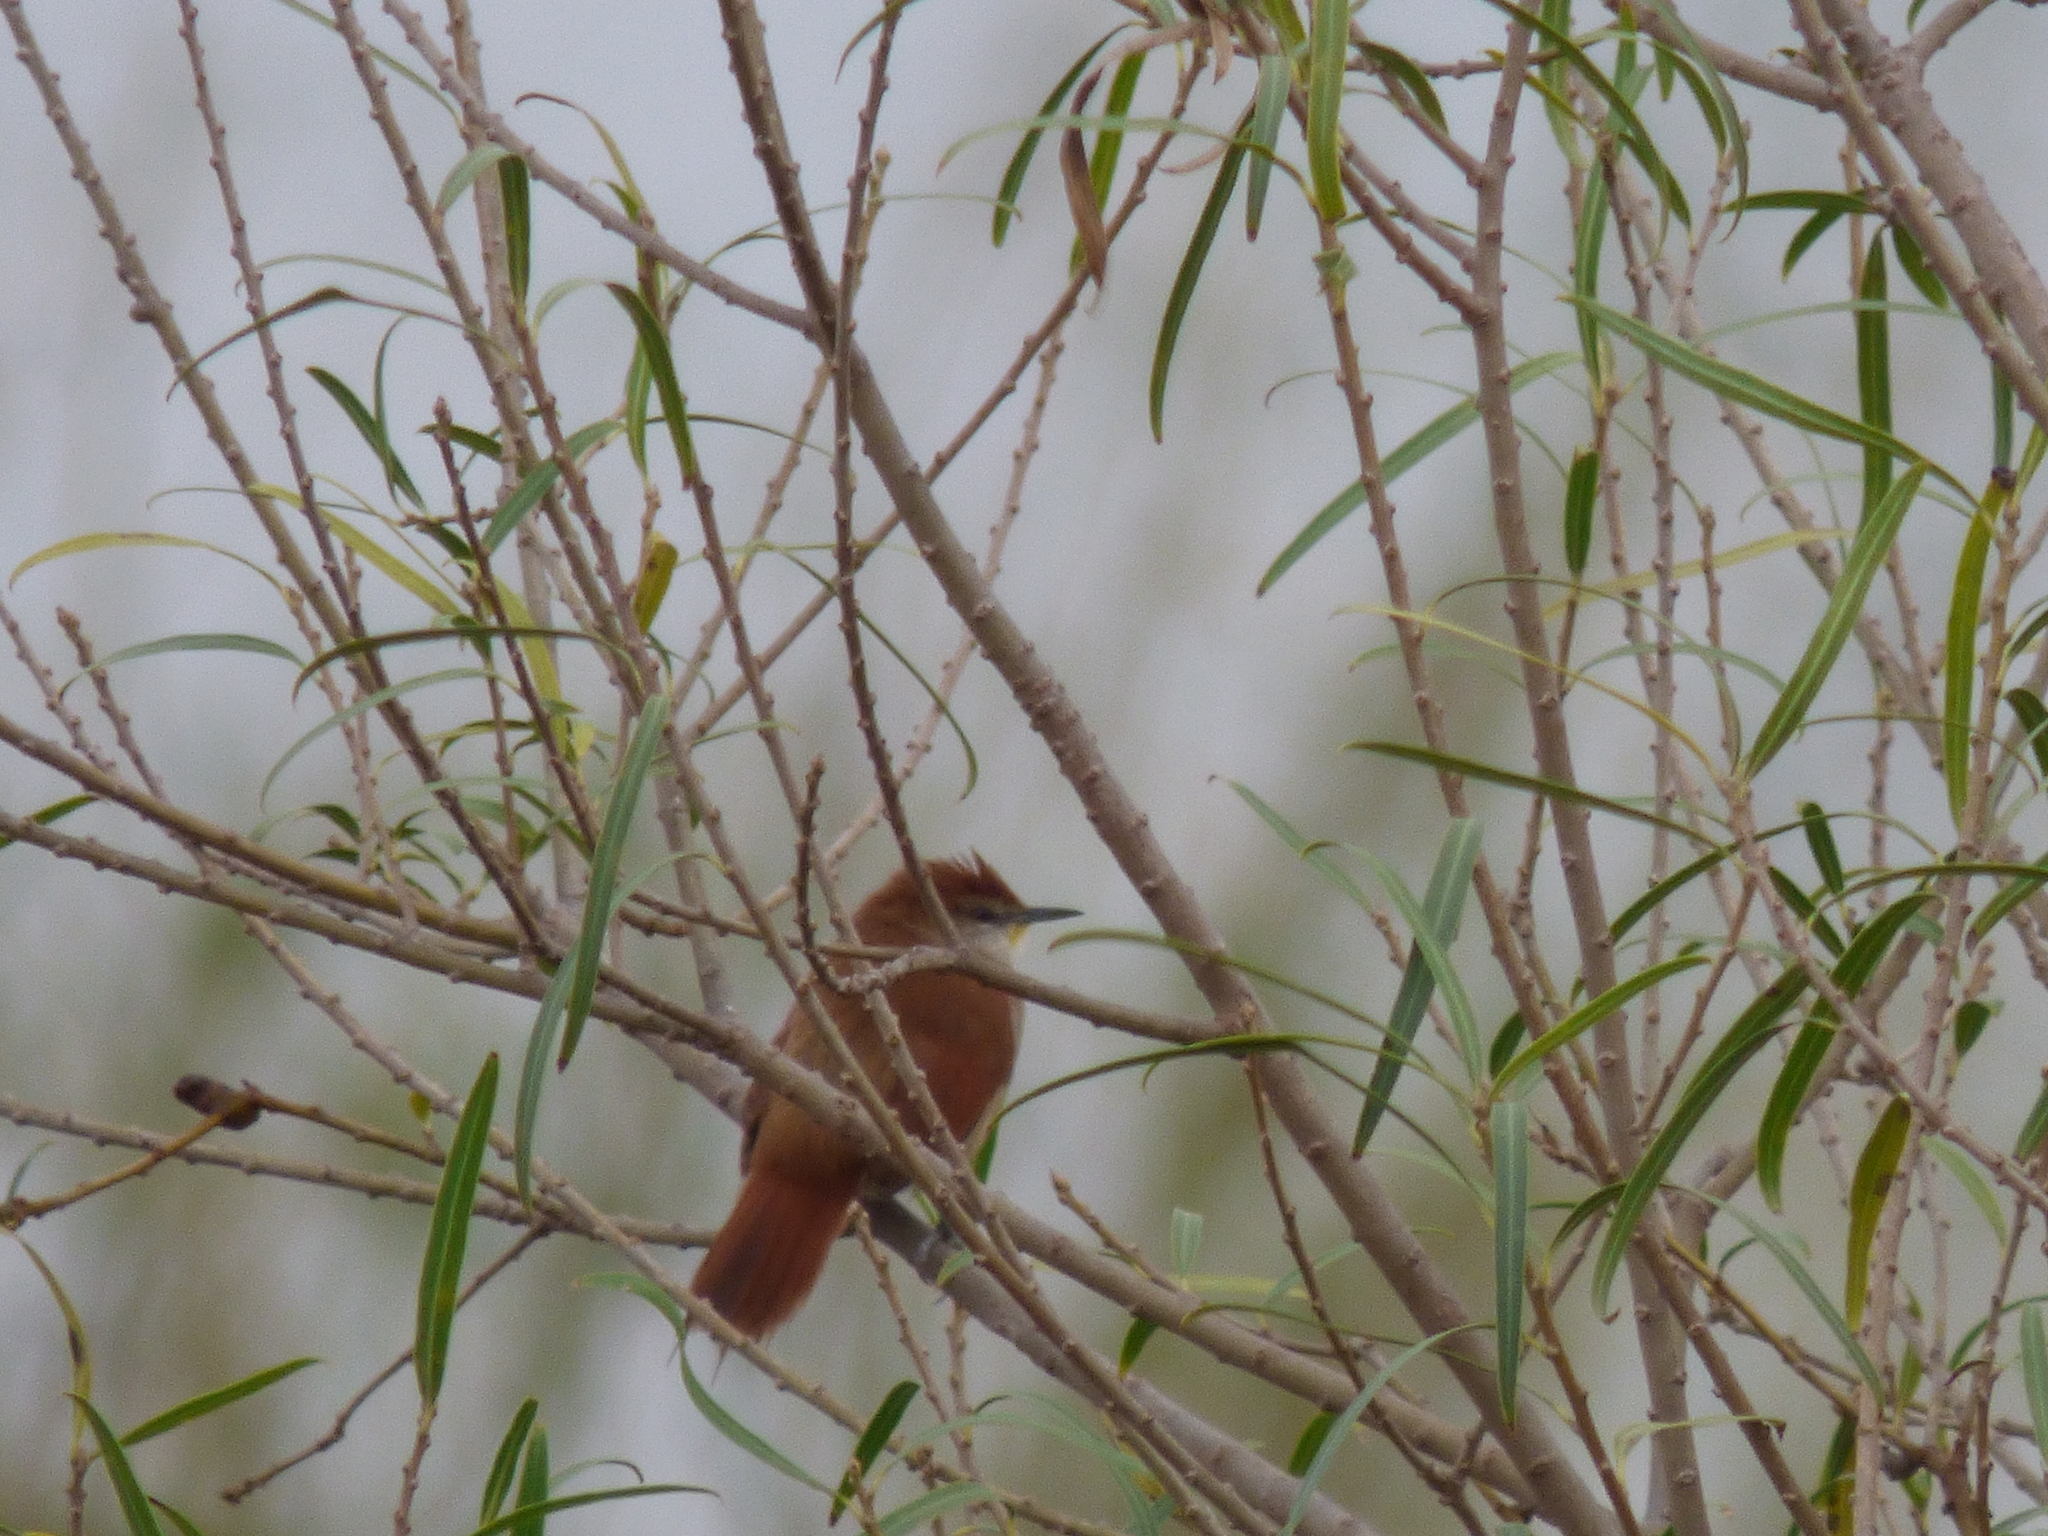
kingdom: Animalia
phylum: Chordata
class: Aves
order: Passeriformes
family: Furnariidae
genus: Certhiaxis
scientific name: Certhiaxis cinnamomeus
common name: Yellow-chinned spinetail
